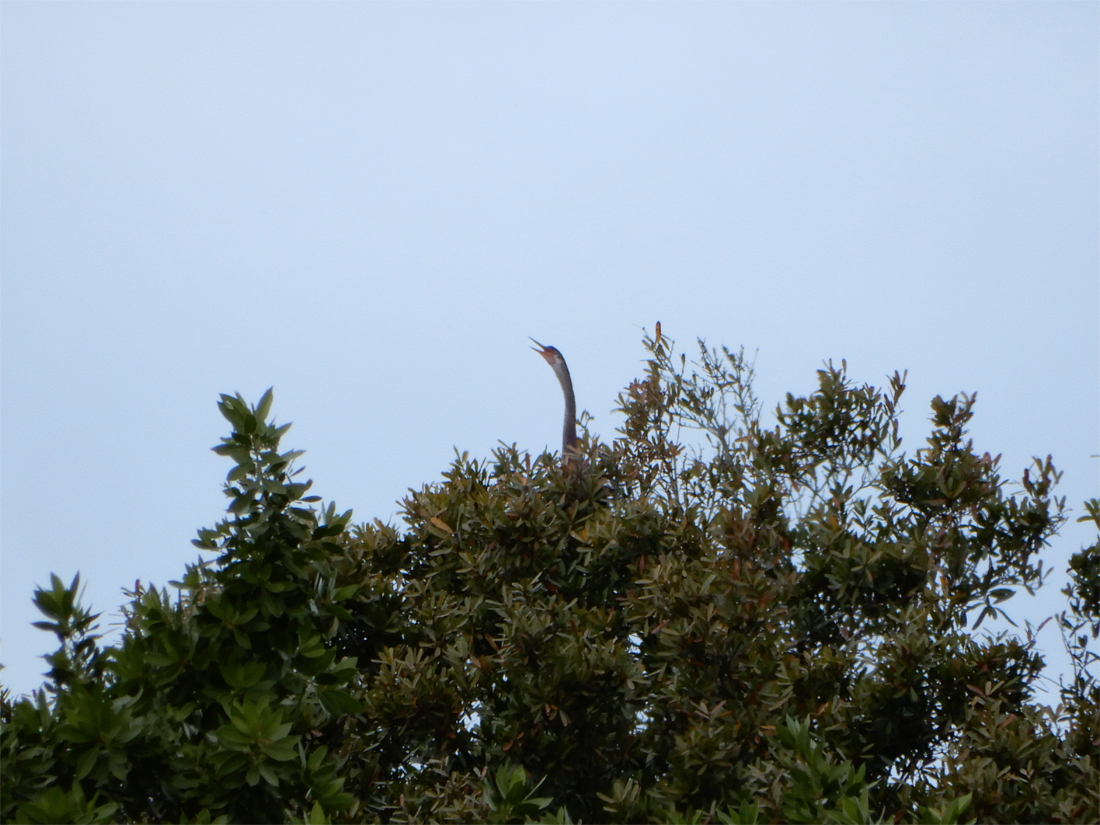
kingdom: Animalia
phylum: Chordata
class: Aves
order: Suliformes
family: Anhingidae
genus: Anhinga
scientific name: Anhinga anhinga
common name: Anhinga
